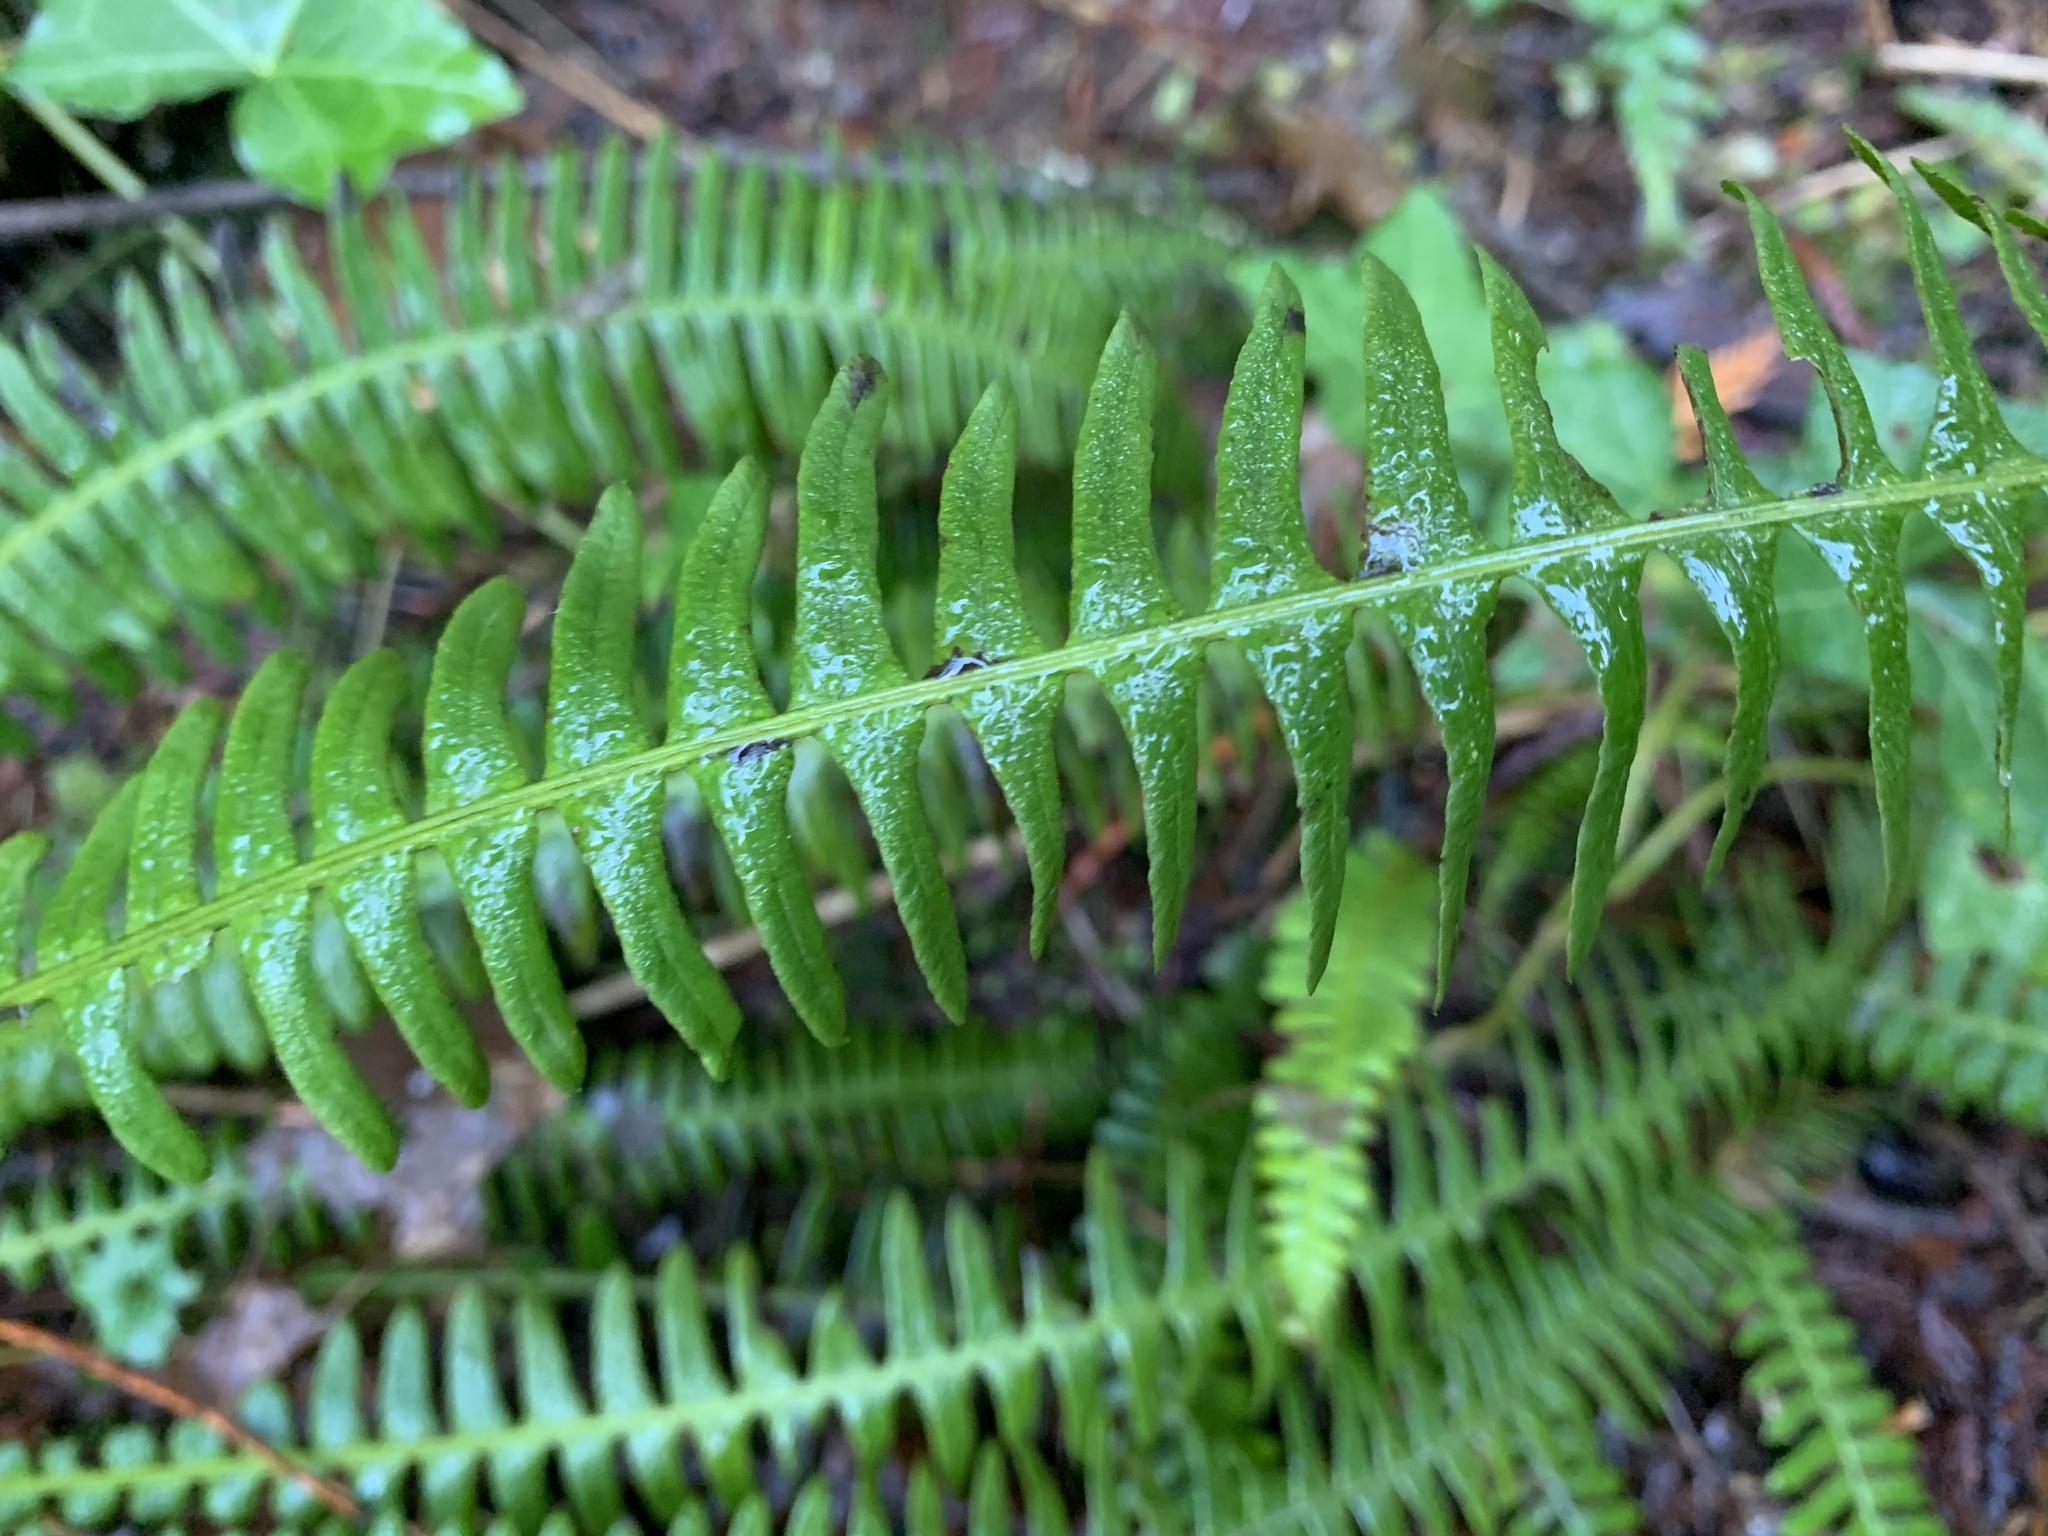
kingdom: Plantae
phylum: Tracheophyta
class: Polypodiopsida
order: Polypodiales
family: Blechnaceae
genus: Struthiopteris
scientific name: Struthiopteris spicant
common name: Deer fern
